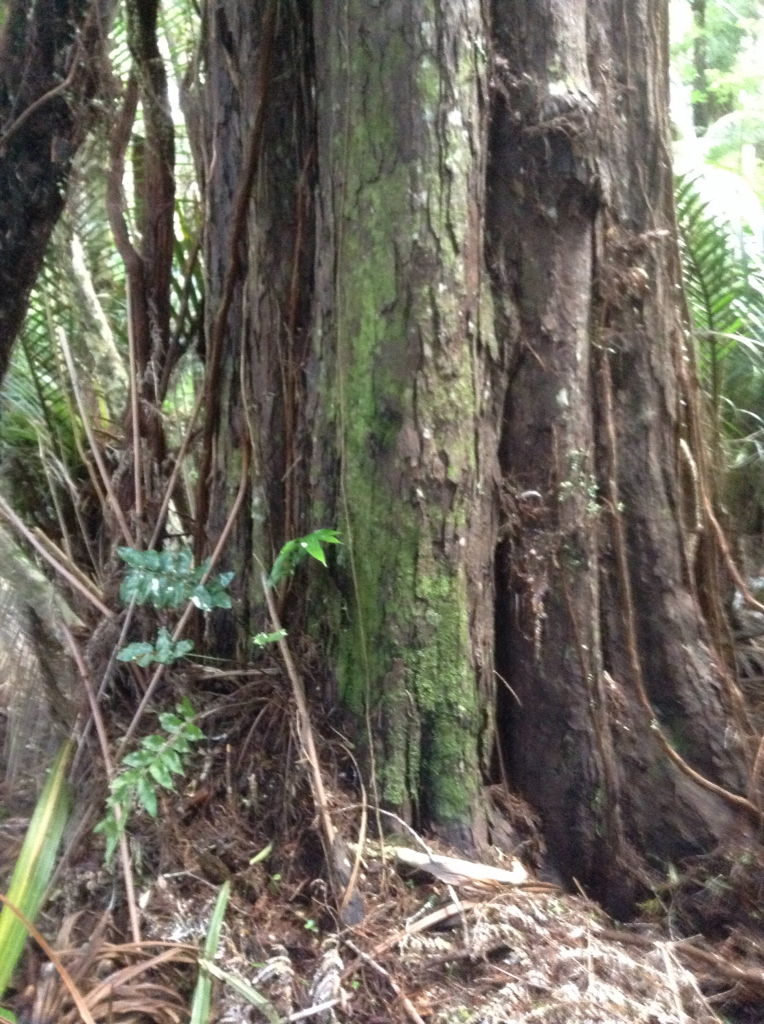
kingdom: Plantae
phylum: Tracheophyta
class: Pinopsida
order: Pinales
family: Podocarpaceae
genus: Dacrydium
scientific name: Dacrydium cupressinum
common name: Red pine
